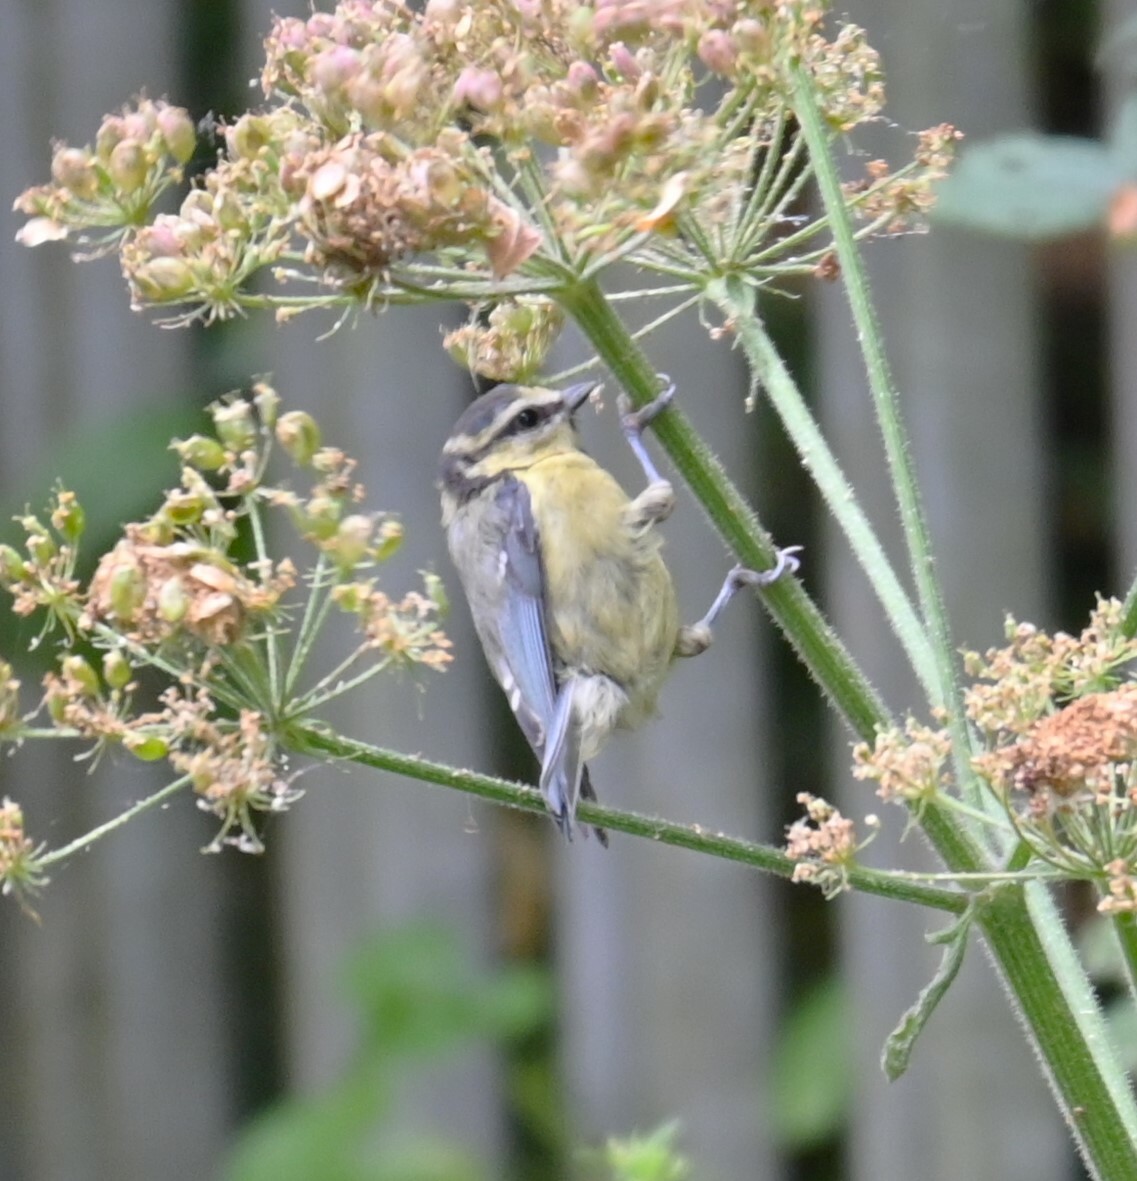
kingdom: Animalia
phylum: Chordata
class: Aves
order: Passeriformes
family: Paridae
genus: Cyanistes
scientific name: Cyanistes caeruleus
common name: Eurasian blue tit
